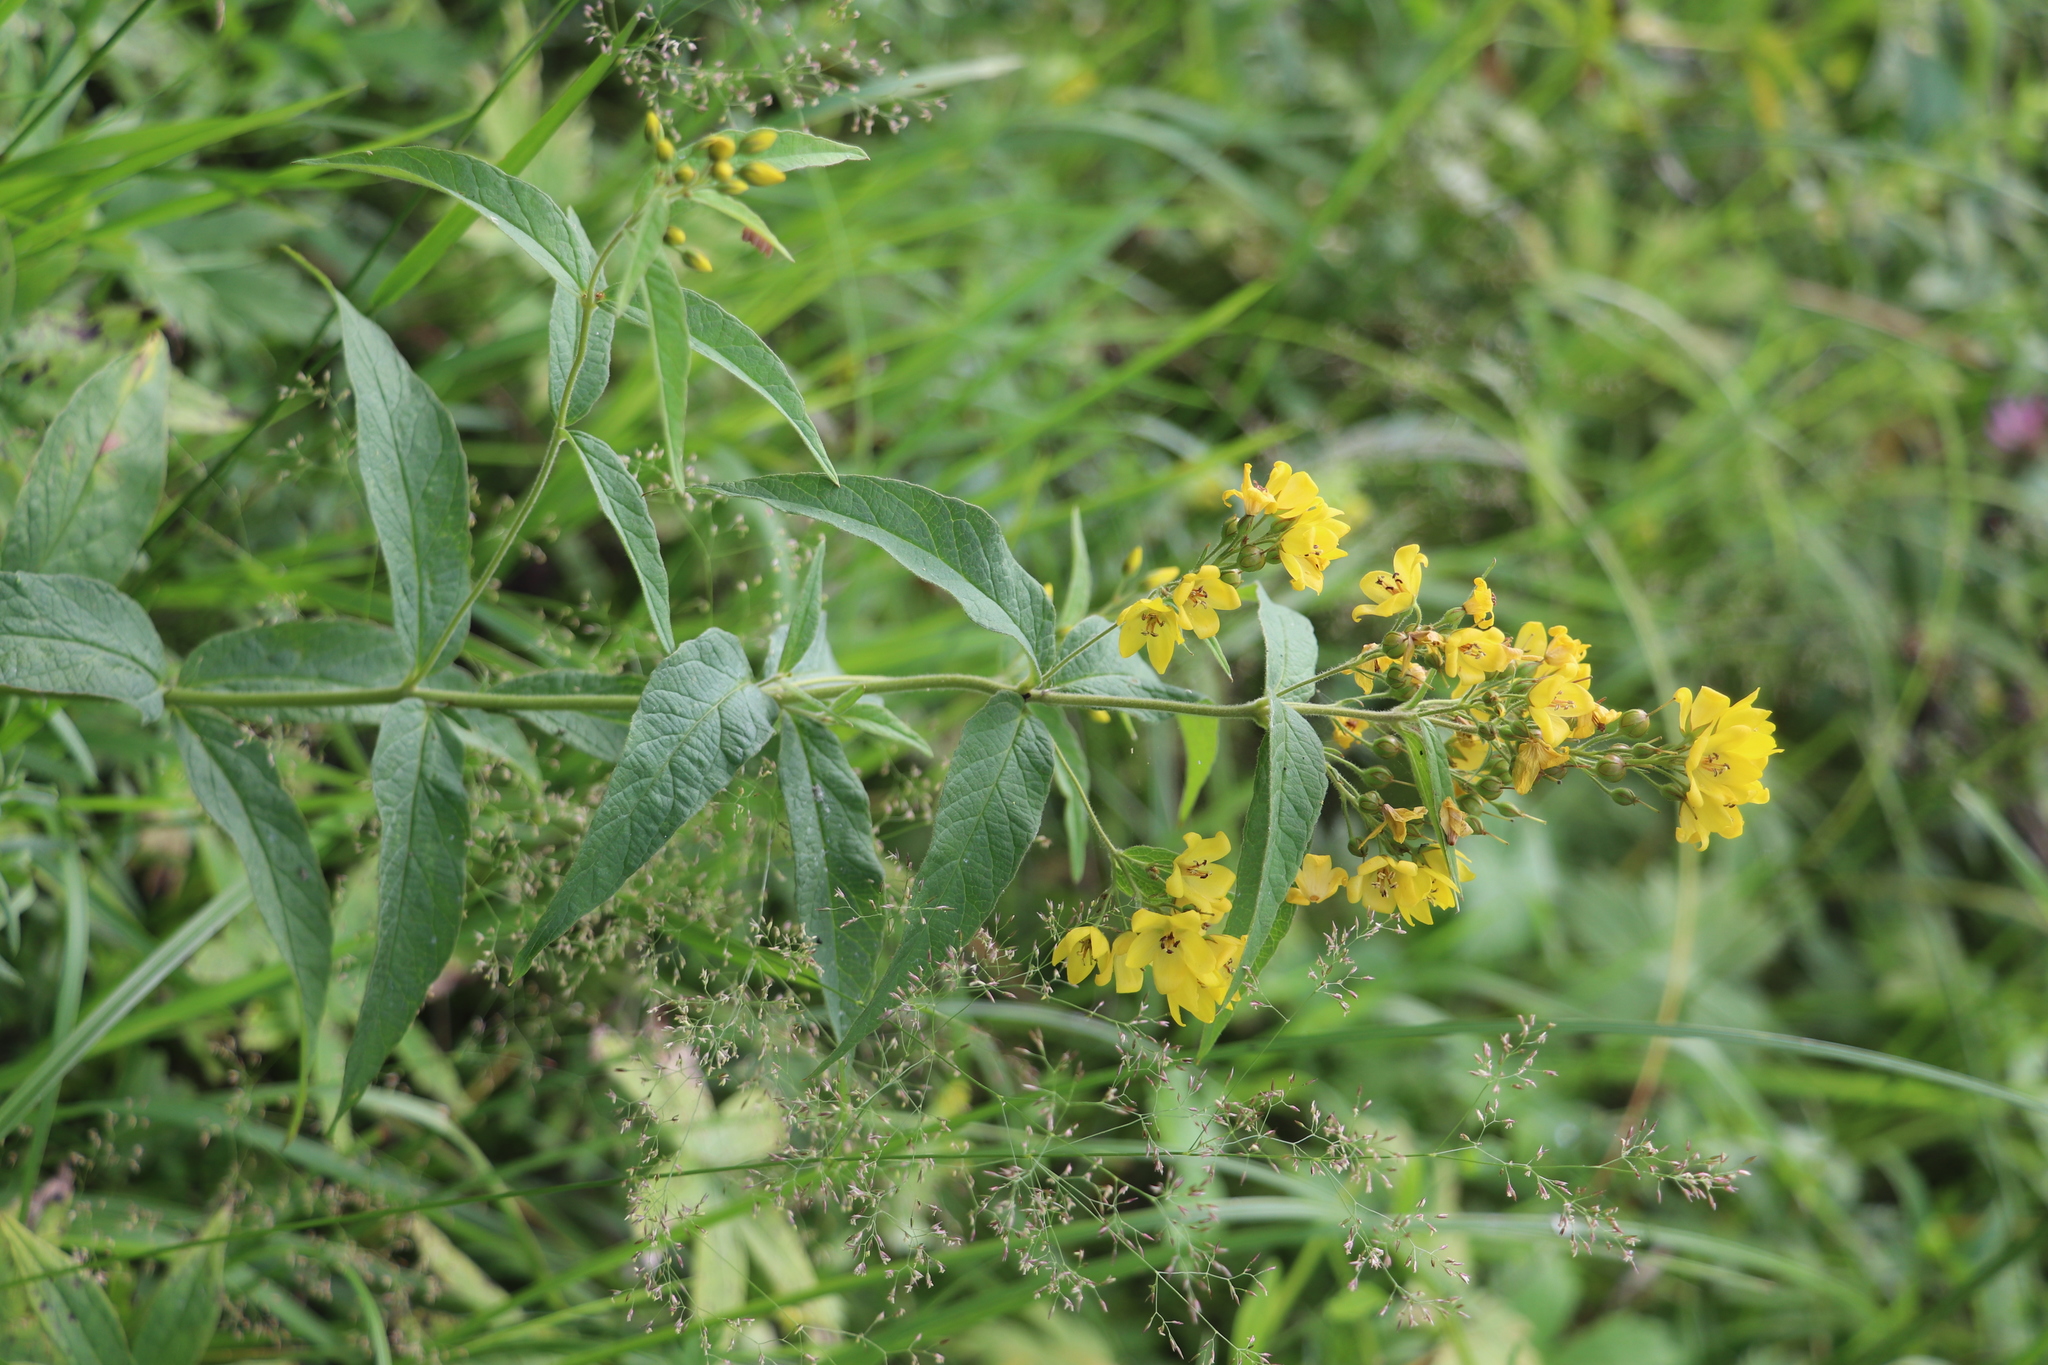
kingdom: Plantae
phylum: Tracheophyta
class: Magnoliopsida
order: Ericales
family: Primulaceae
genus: Lysimachia
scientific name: Lysimachia vulgaris
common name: Yellow loosestrife
